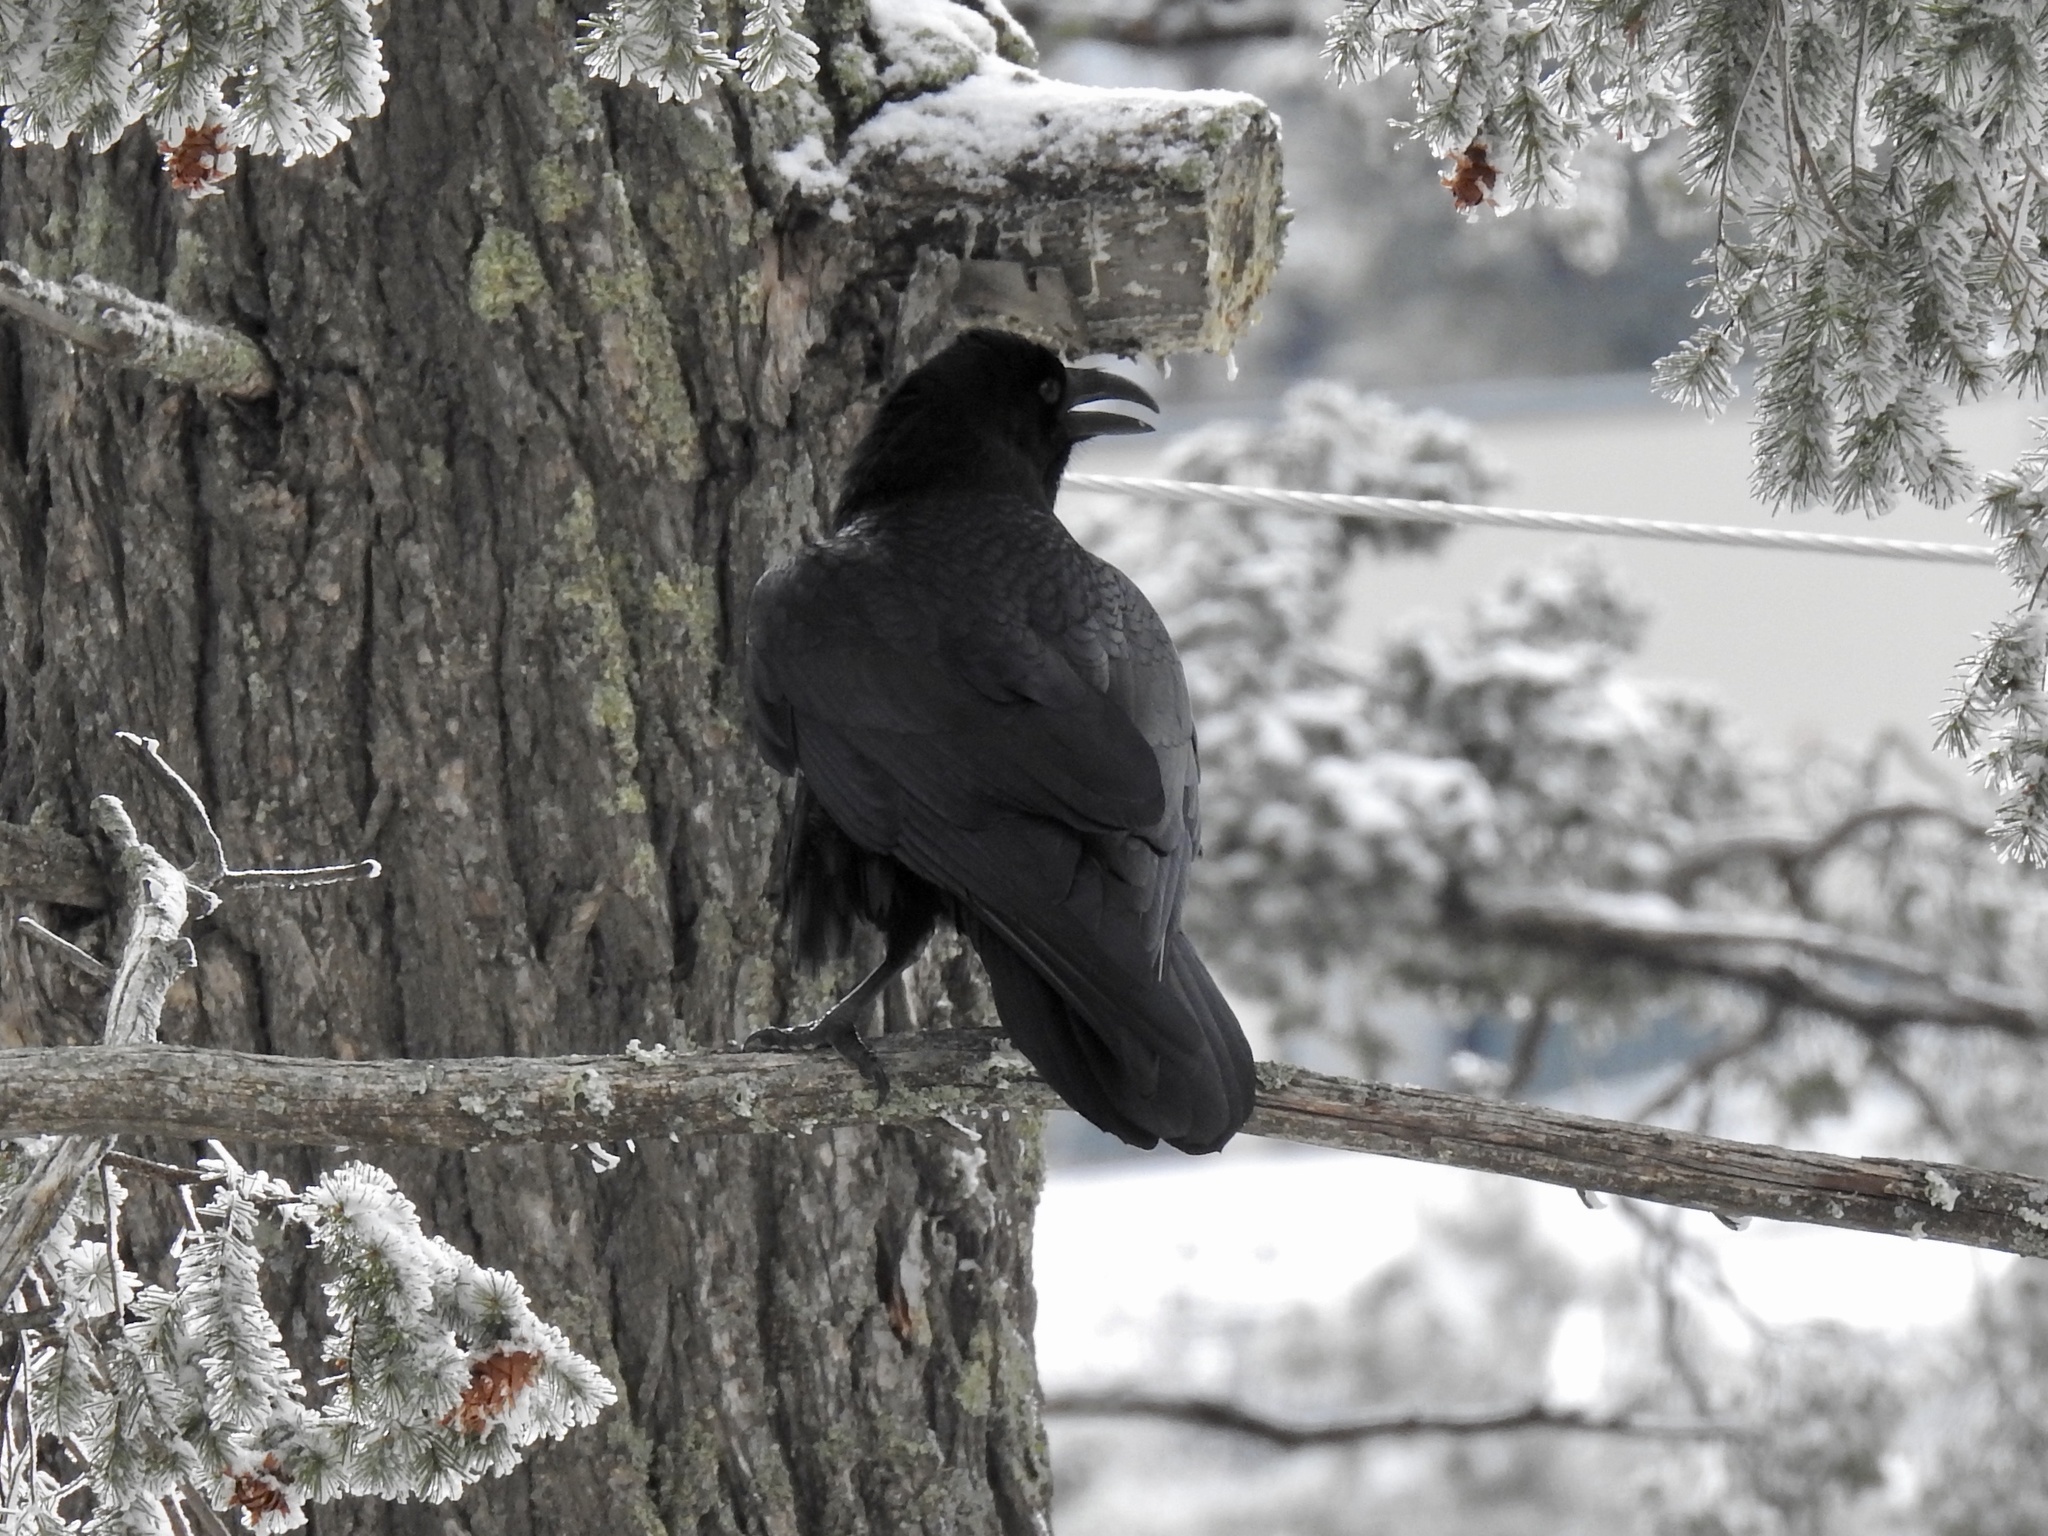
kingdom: Animalia
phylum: Chordata
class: Aves
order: Passeriformes
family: Corvidae
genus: Corvus
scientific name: Corvus corax
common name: Common raven
